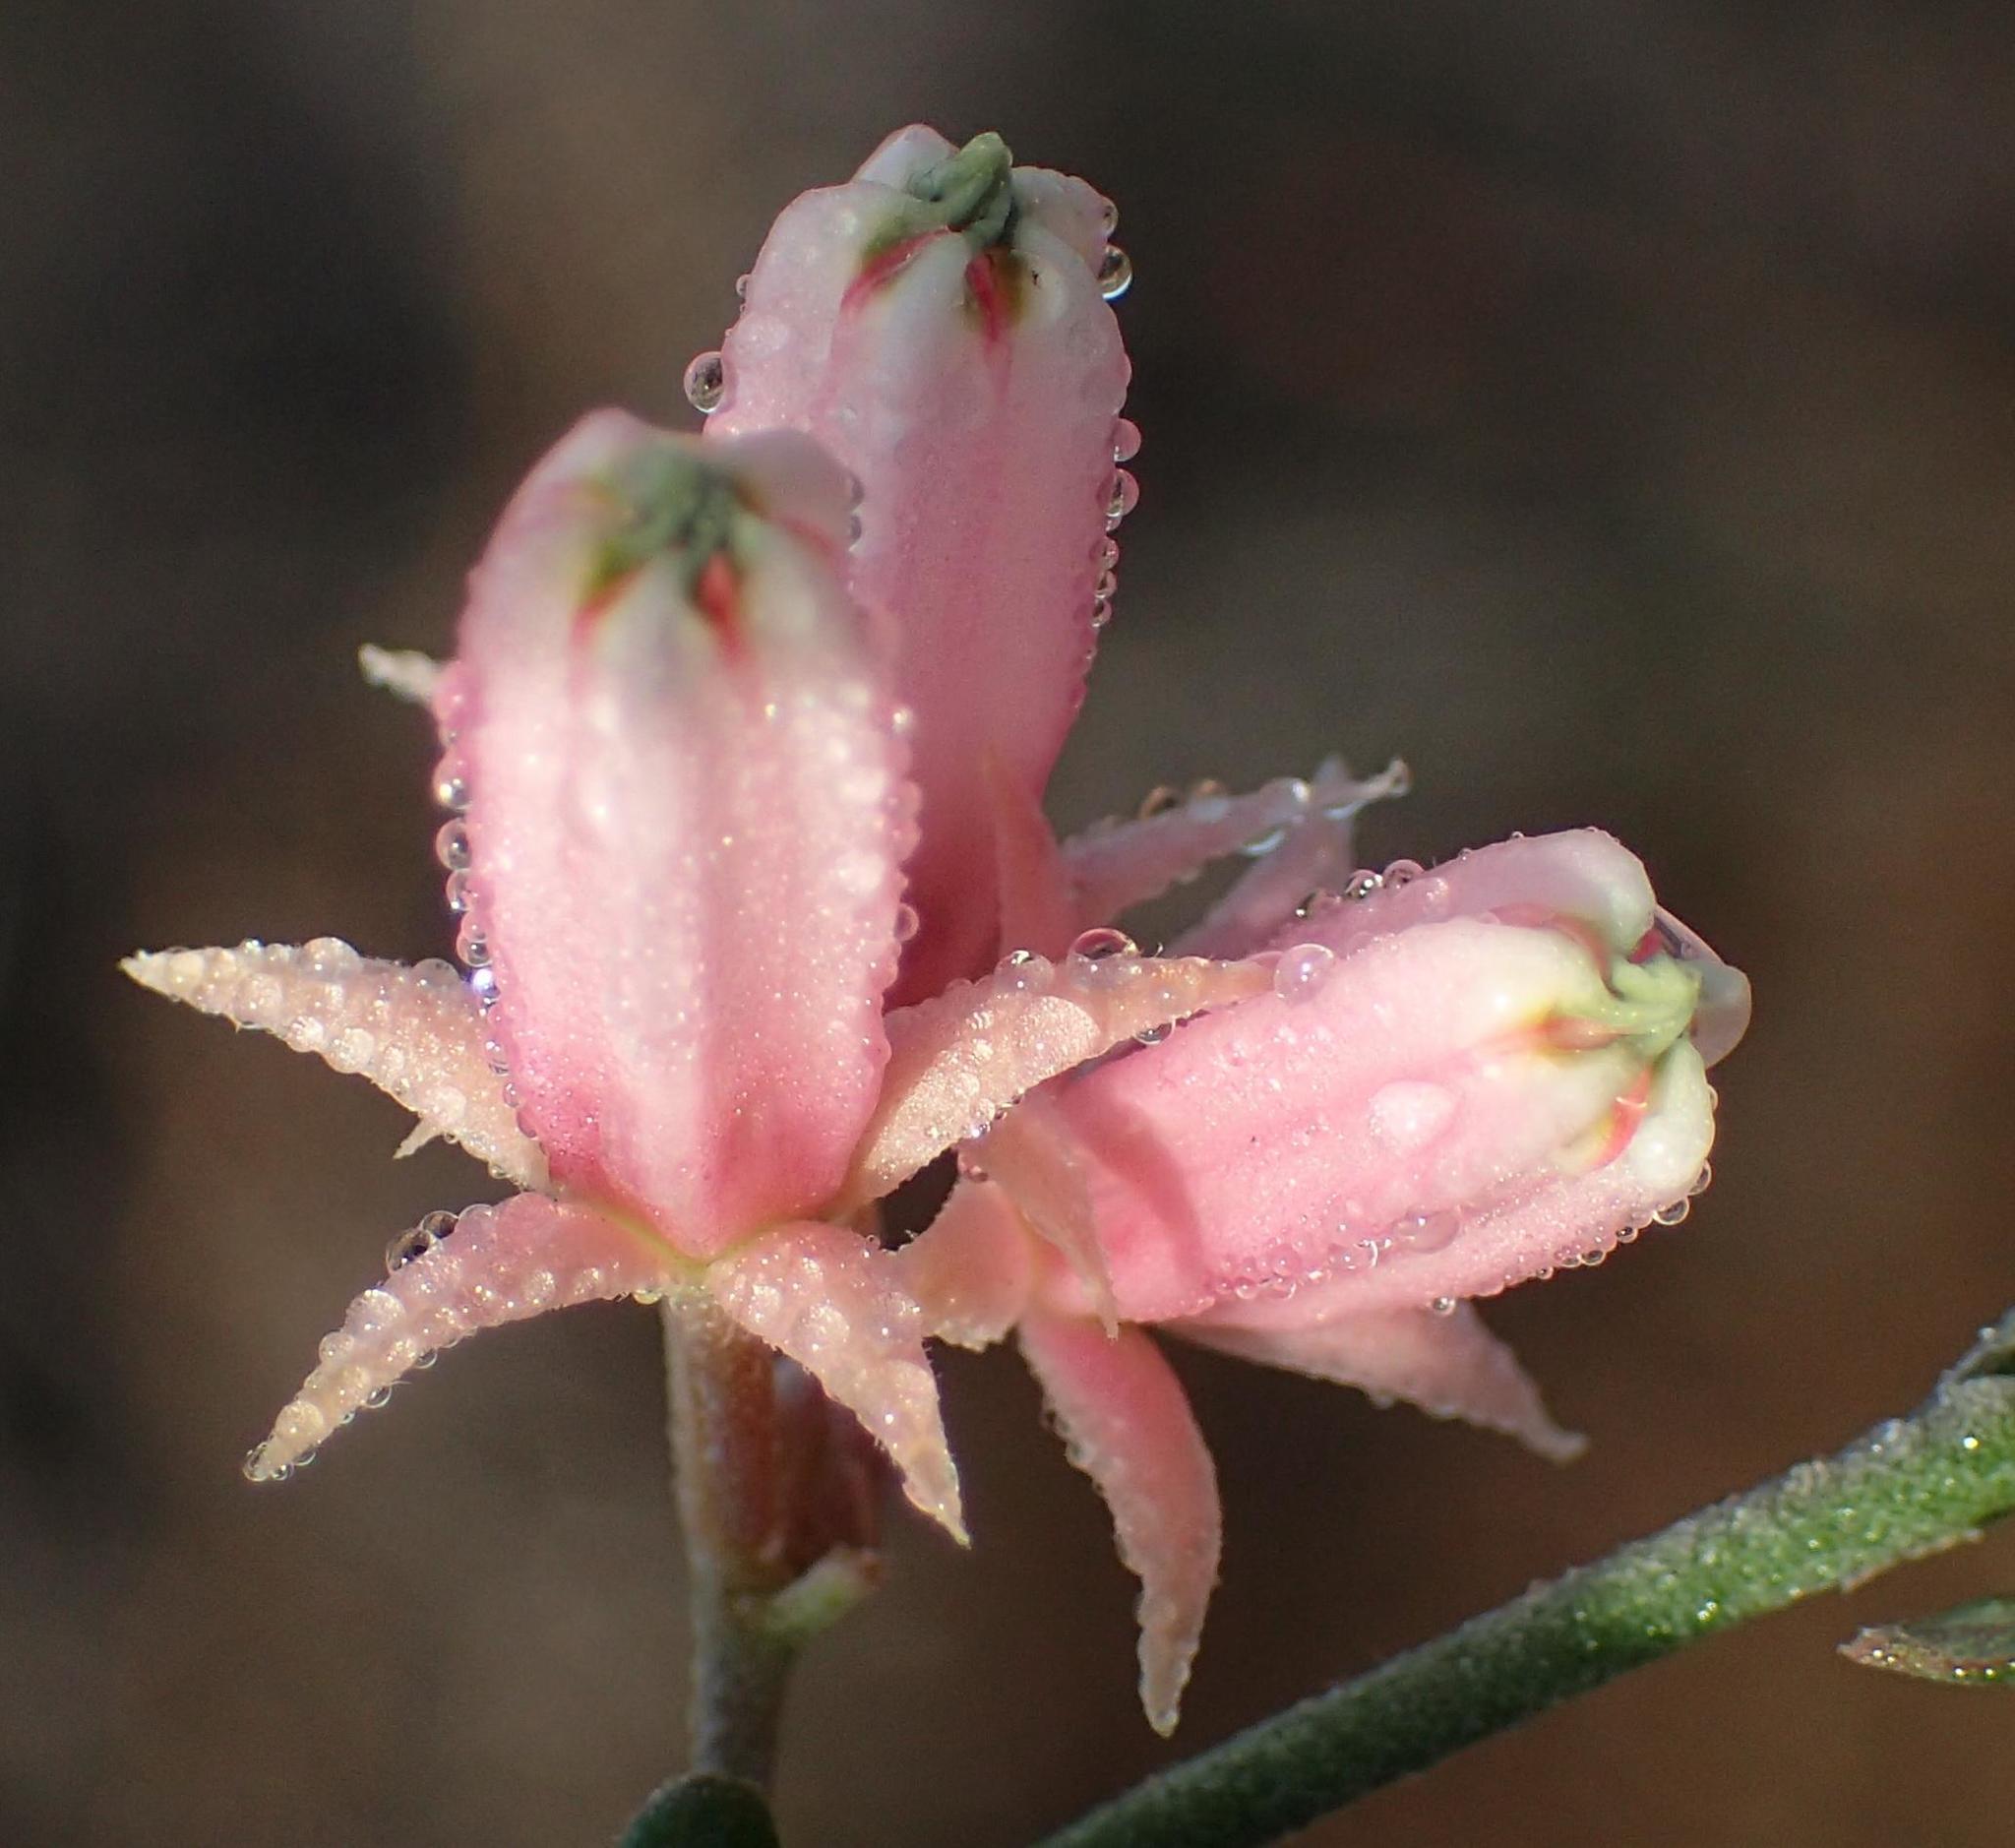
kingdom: Plantae
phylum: Tracheophyta
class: Magnoliopsida
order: Gentianales
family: Apocynaceae
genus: Microloma
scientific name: Microloma sagittatum
